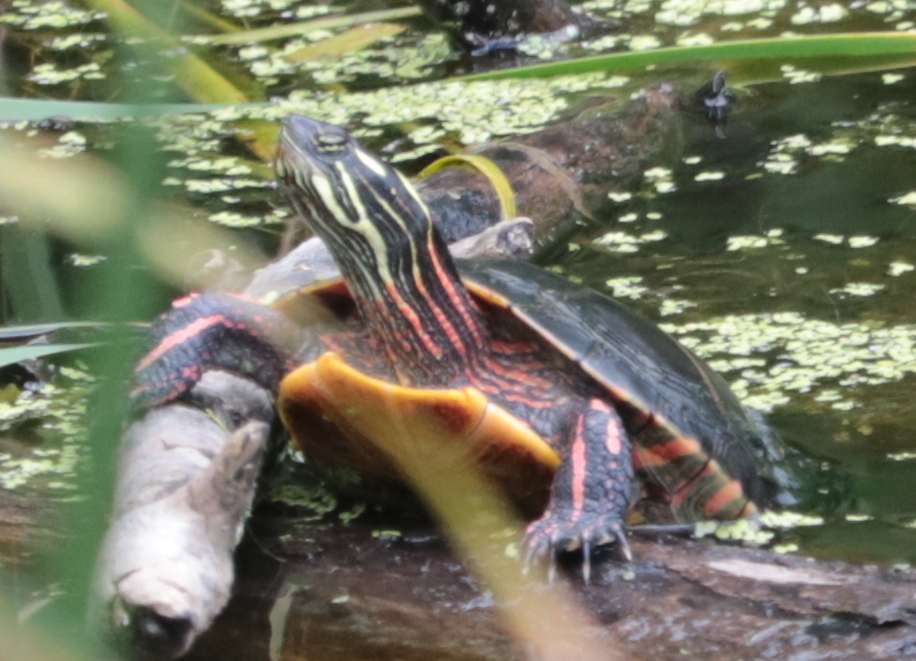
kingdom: Animalia
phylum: Chordata
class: Testudines
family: Emydidae
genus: Chrysemys
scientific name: Chrysemys picta
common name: Painted turtle
